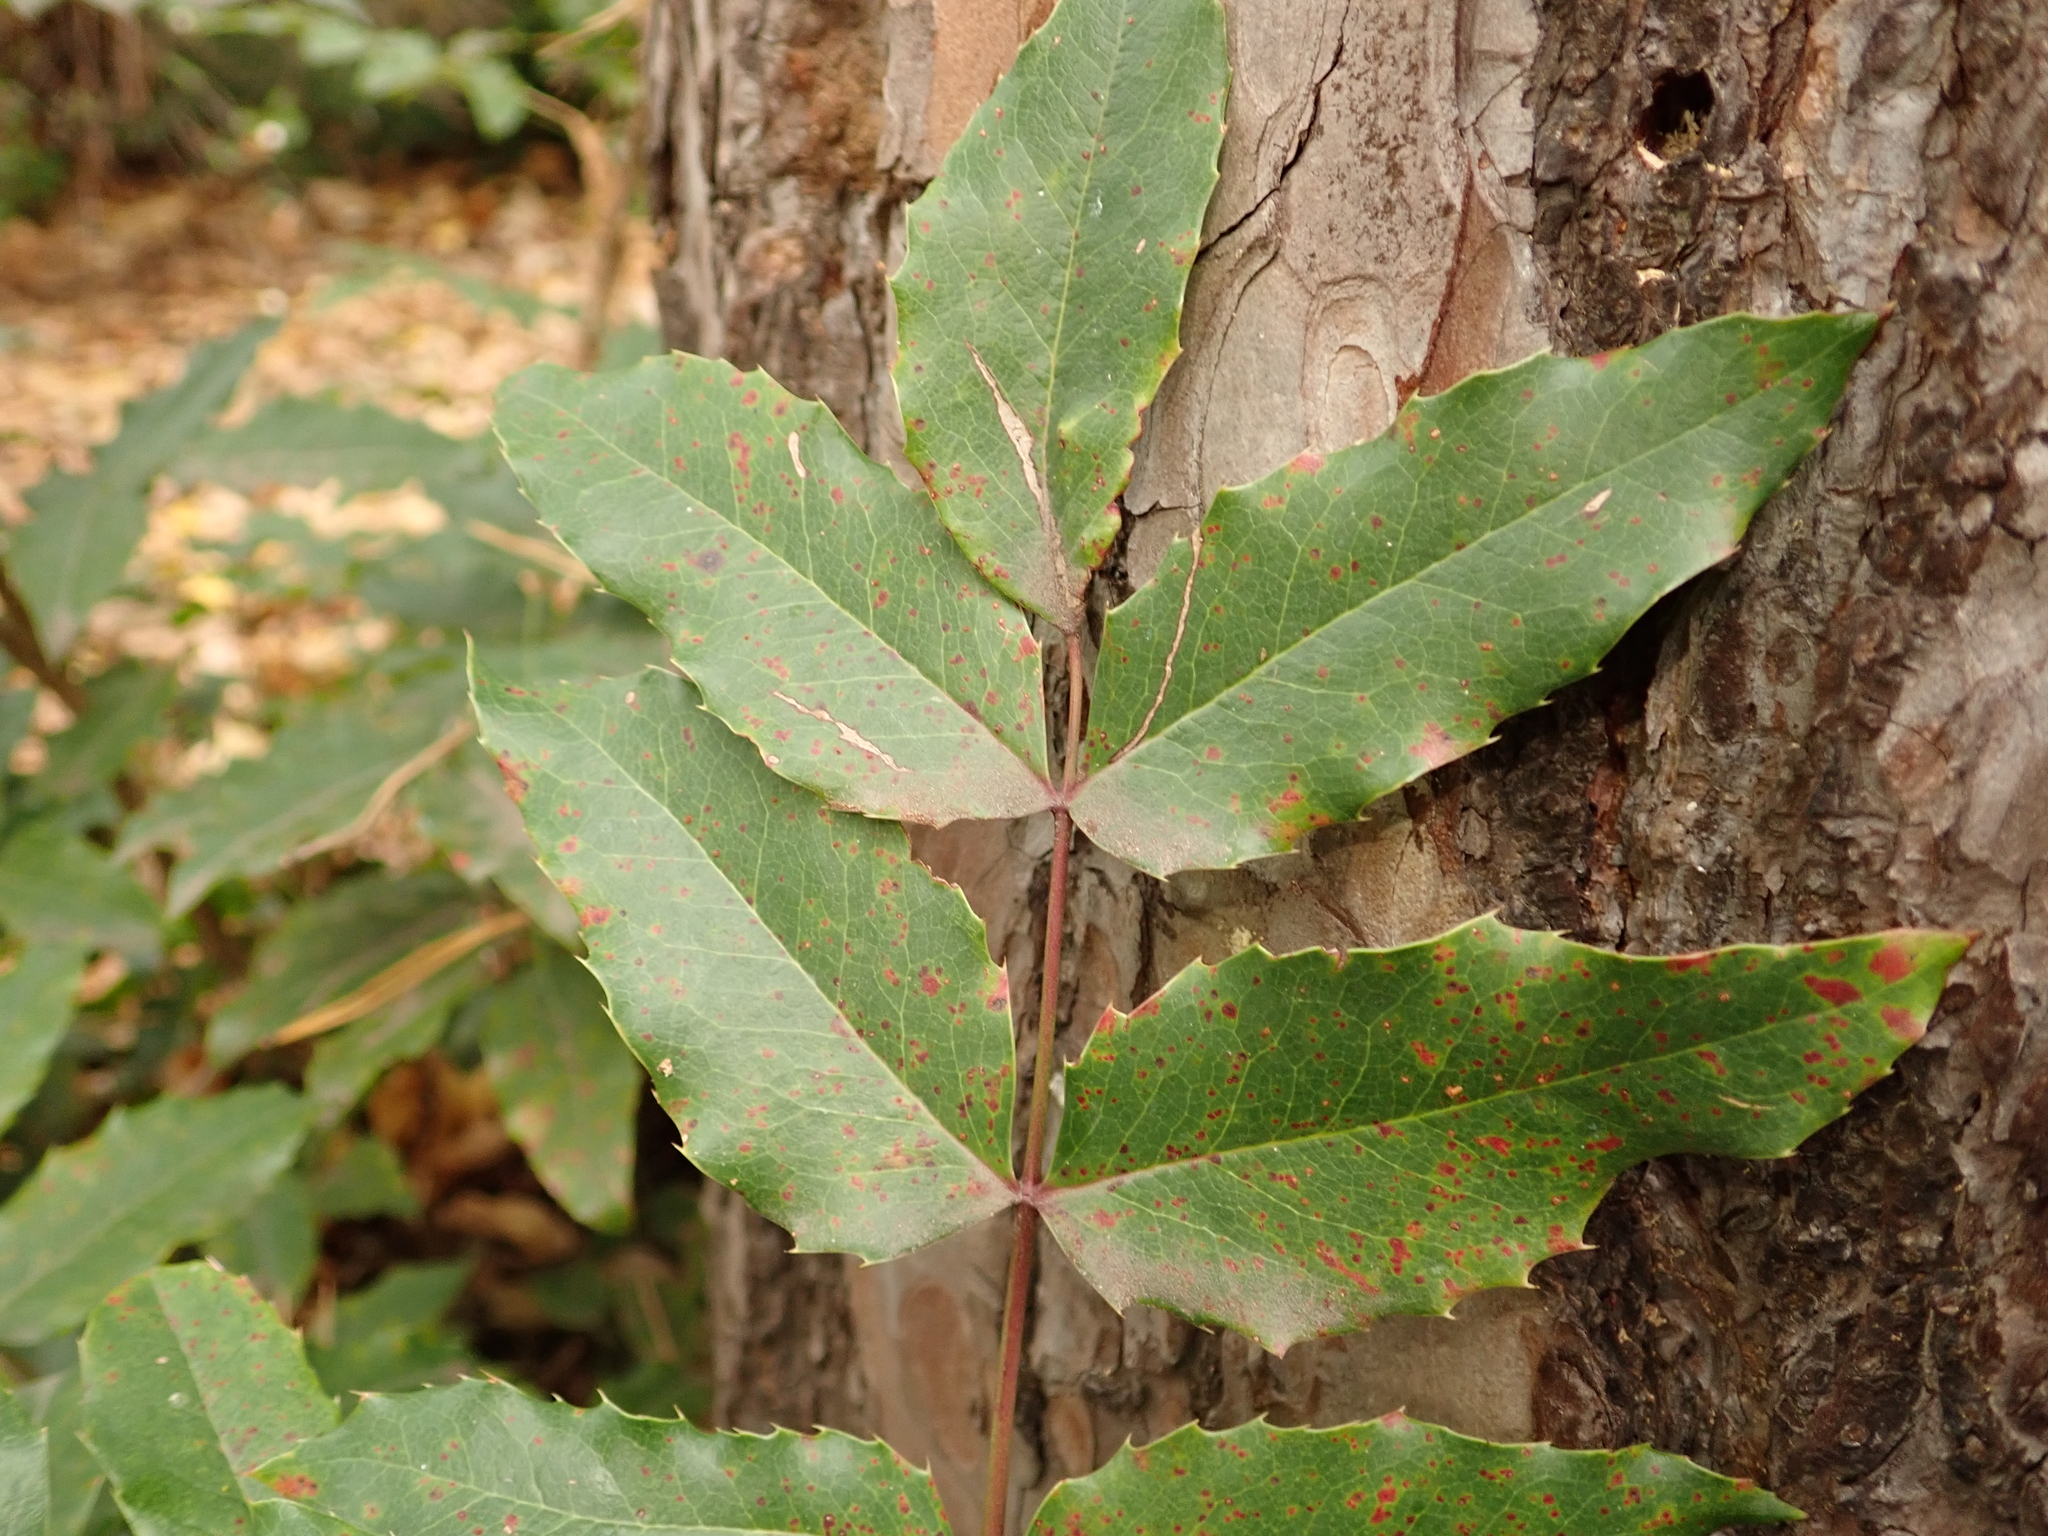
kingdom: Plantae
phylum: Tracheophyta
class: Magnoliopsida
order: Ranunculales
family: Berberidaceae
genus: Mahonia
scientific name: Mahonia aquifolium
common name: Oregon-grape
